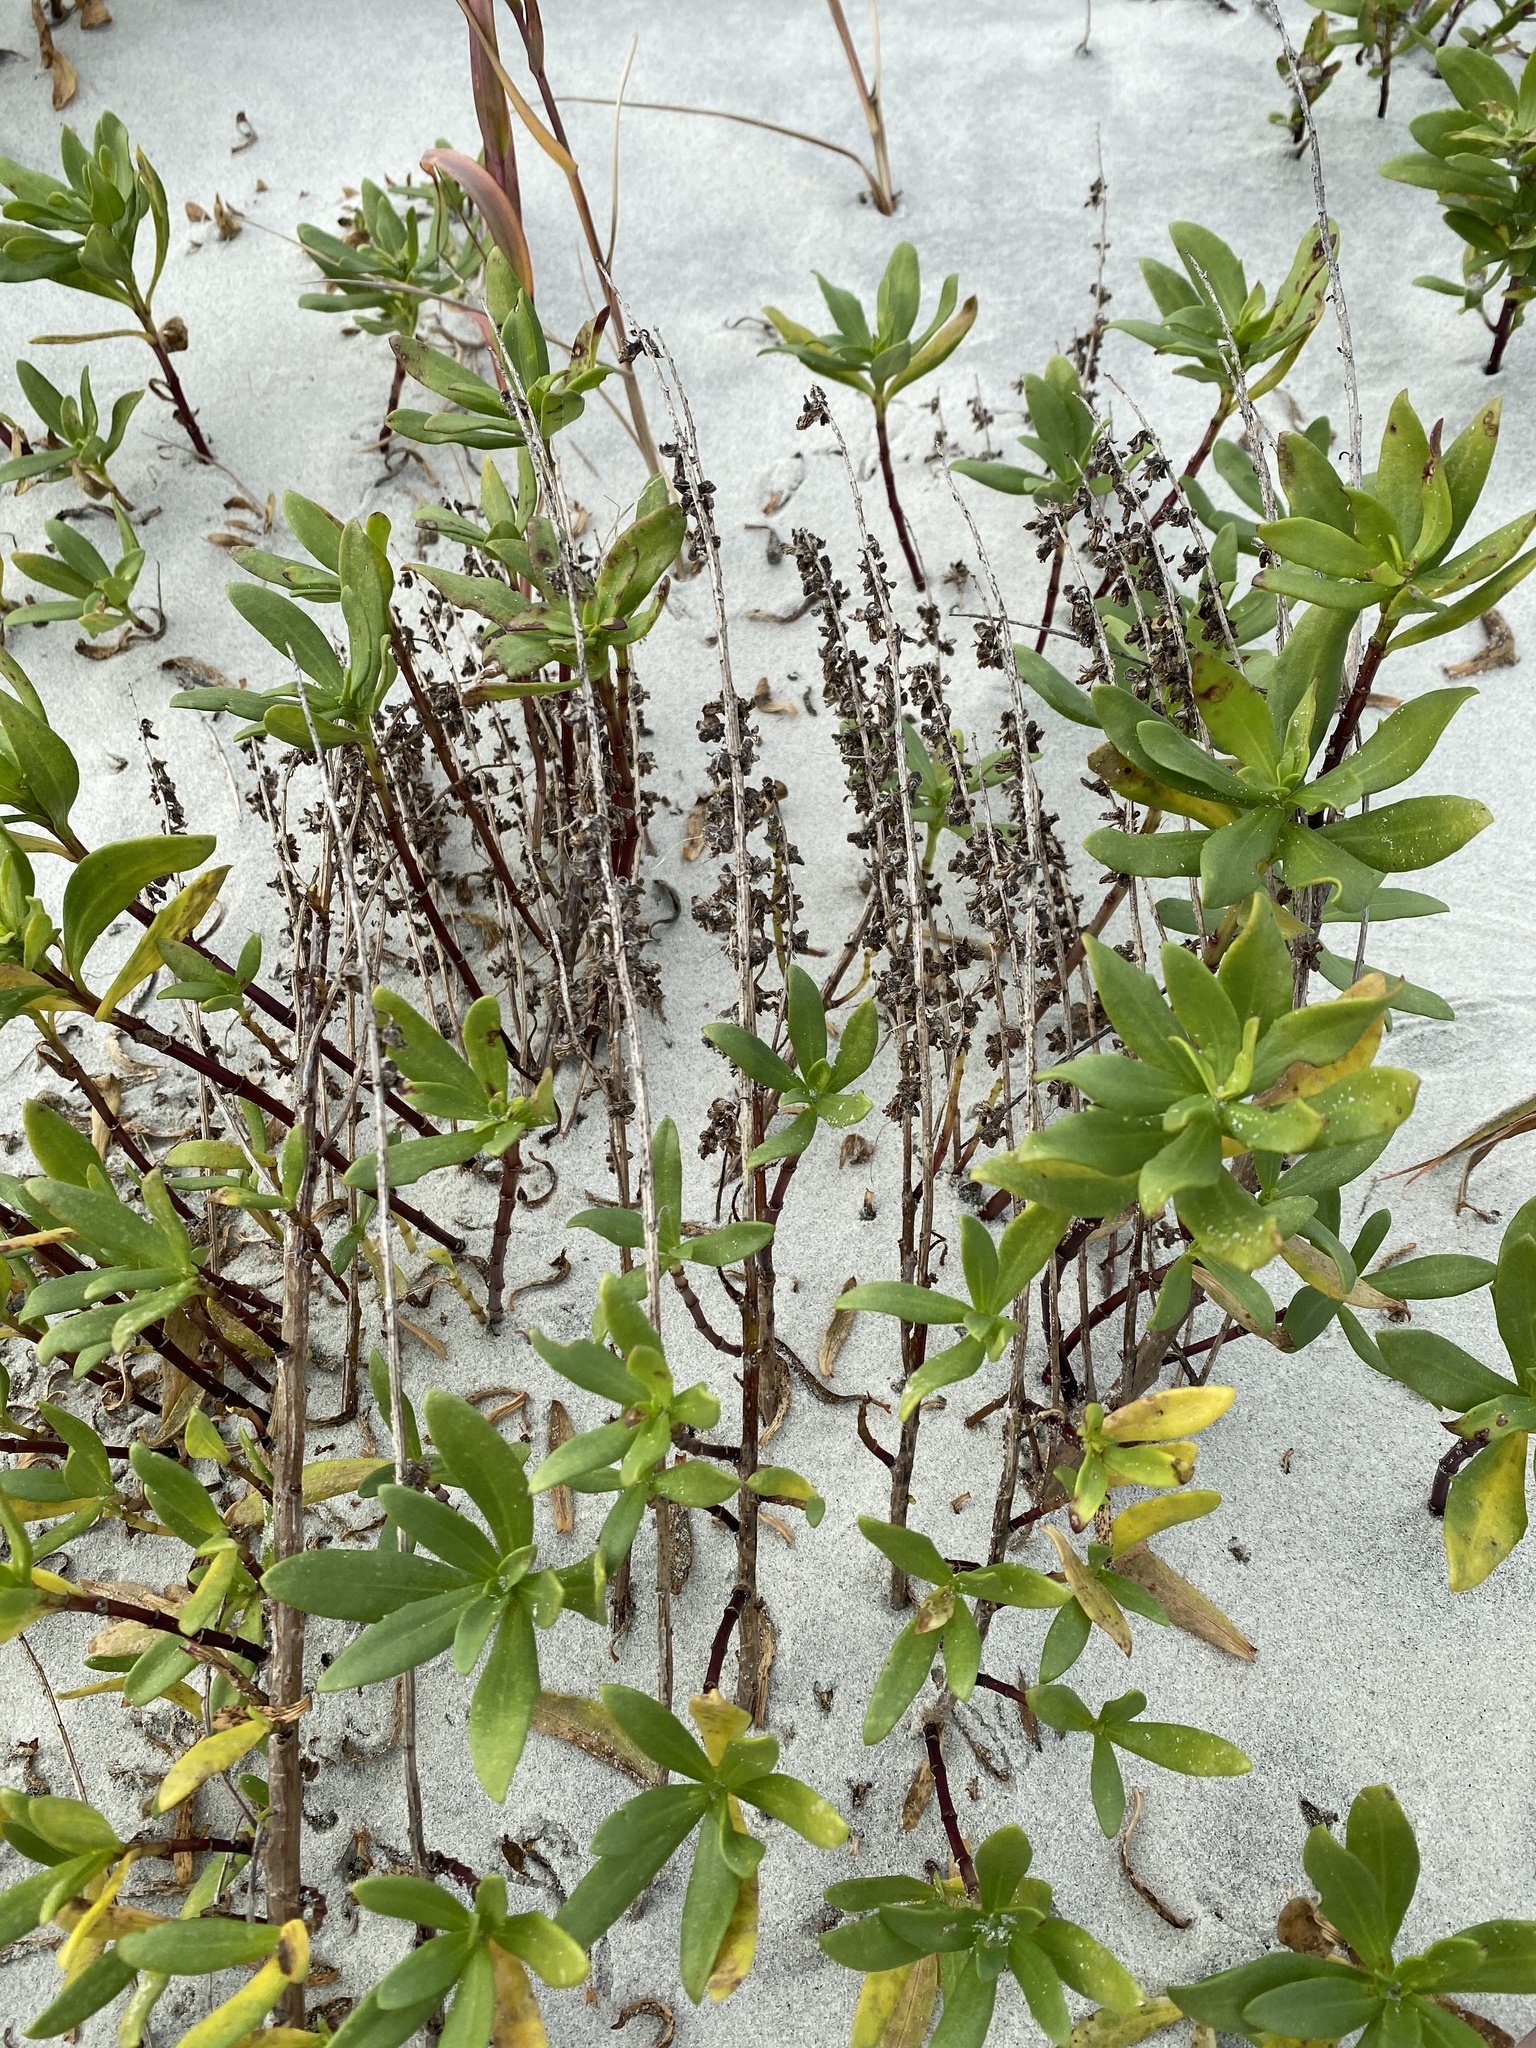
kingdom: Plantae
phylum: Tracheophyta
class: Magnoliopsida
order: Asterales
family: Asteraceae
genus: Iva
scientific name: Iva imbricata
